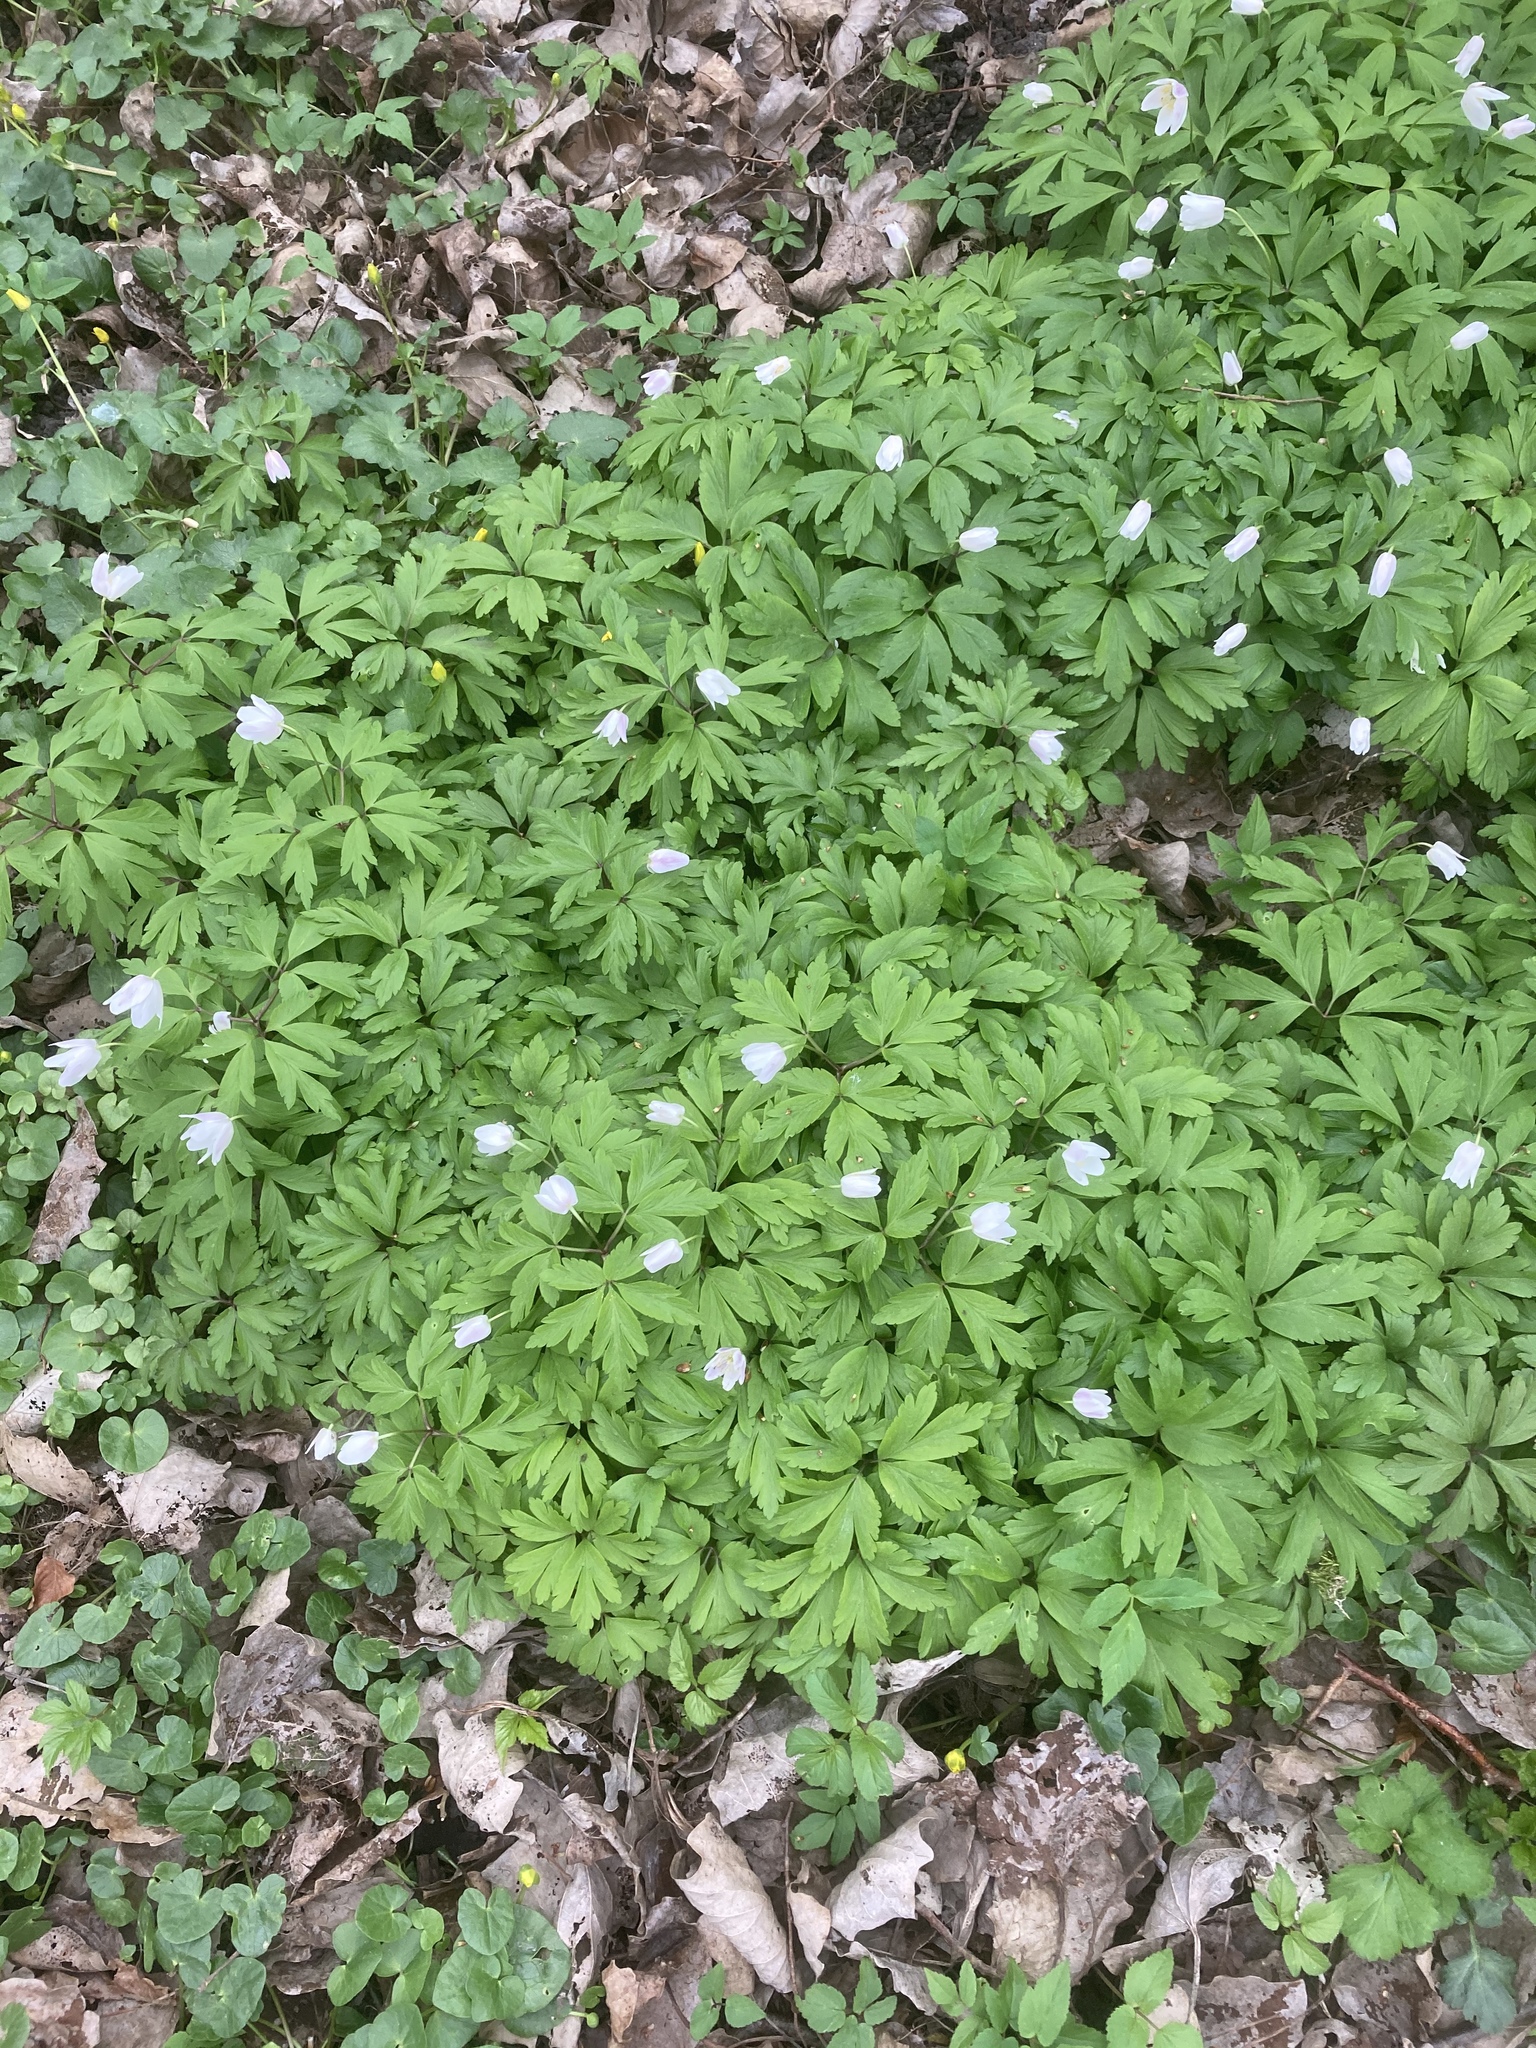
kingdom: Plantae
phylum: Tracheophyta
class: Magnoliopsida
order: Ranunculales
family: Ranunculaceae
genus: Anemone
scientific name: Anemone nemorosa
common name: Wood anemone
